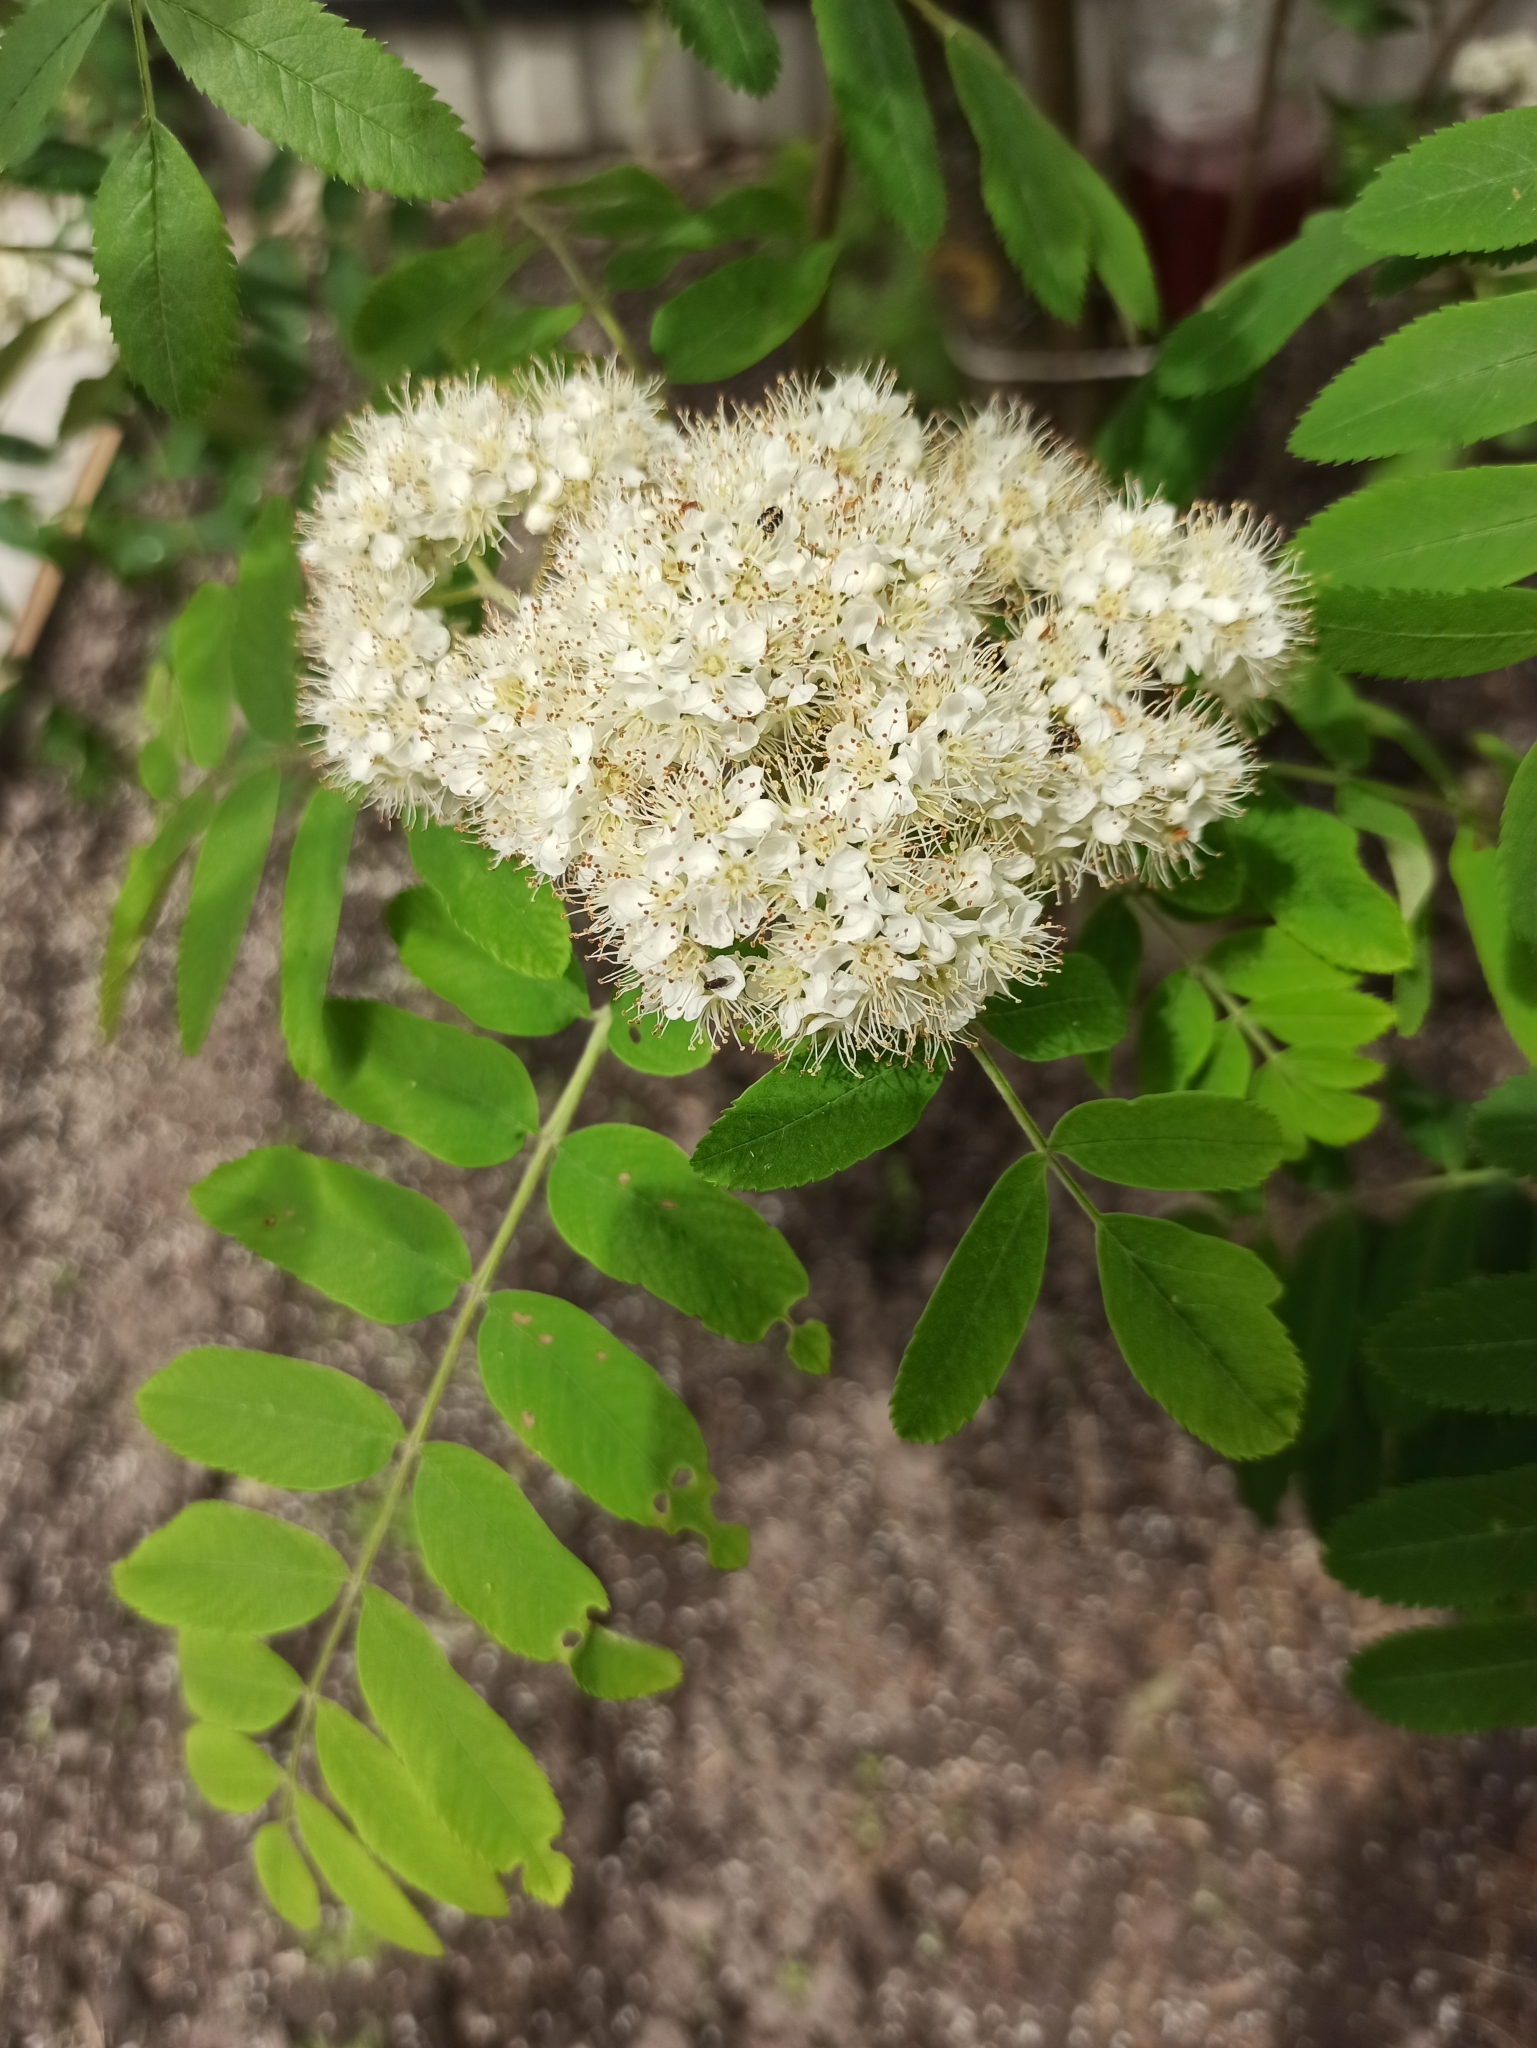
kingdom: Plantae
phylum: Tracheophyta
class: Magnoliopsida
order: Rosales
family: Rosaceae
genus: Sorbus
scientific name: Sorbus aucuparia
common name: Rowan
